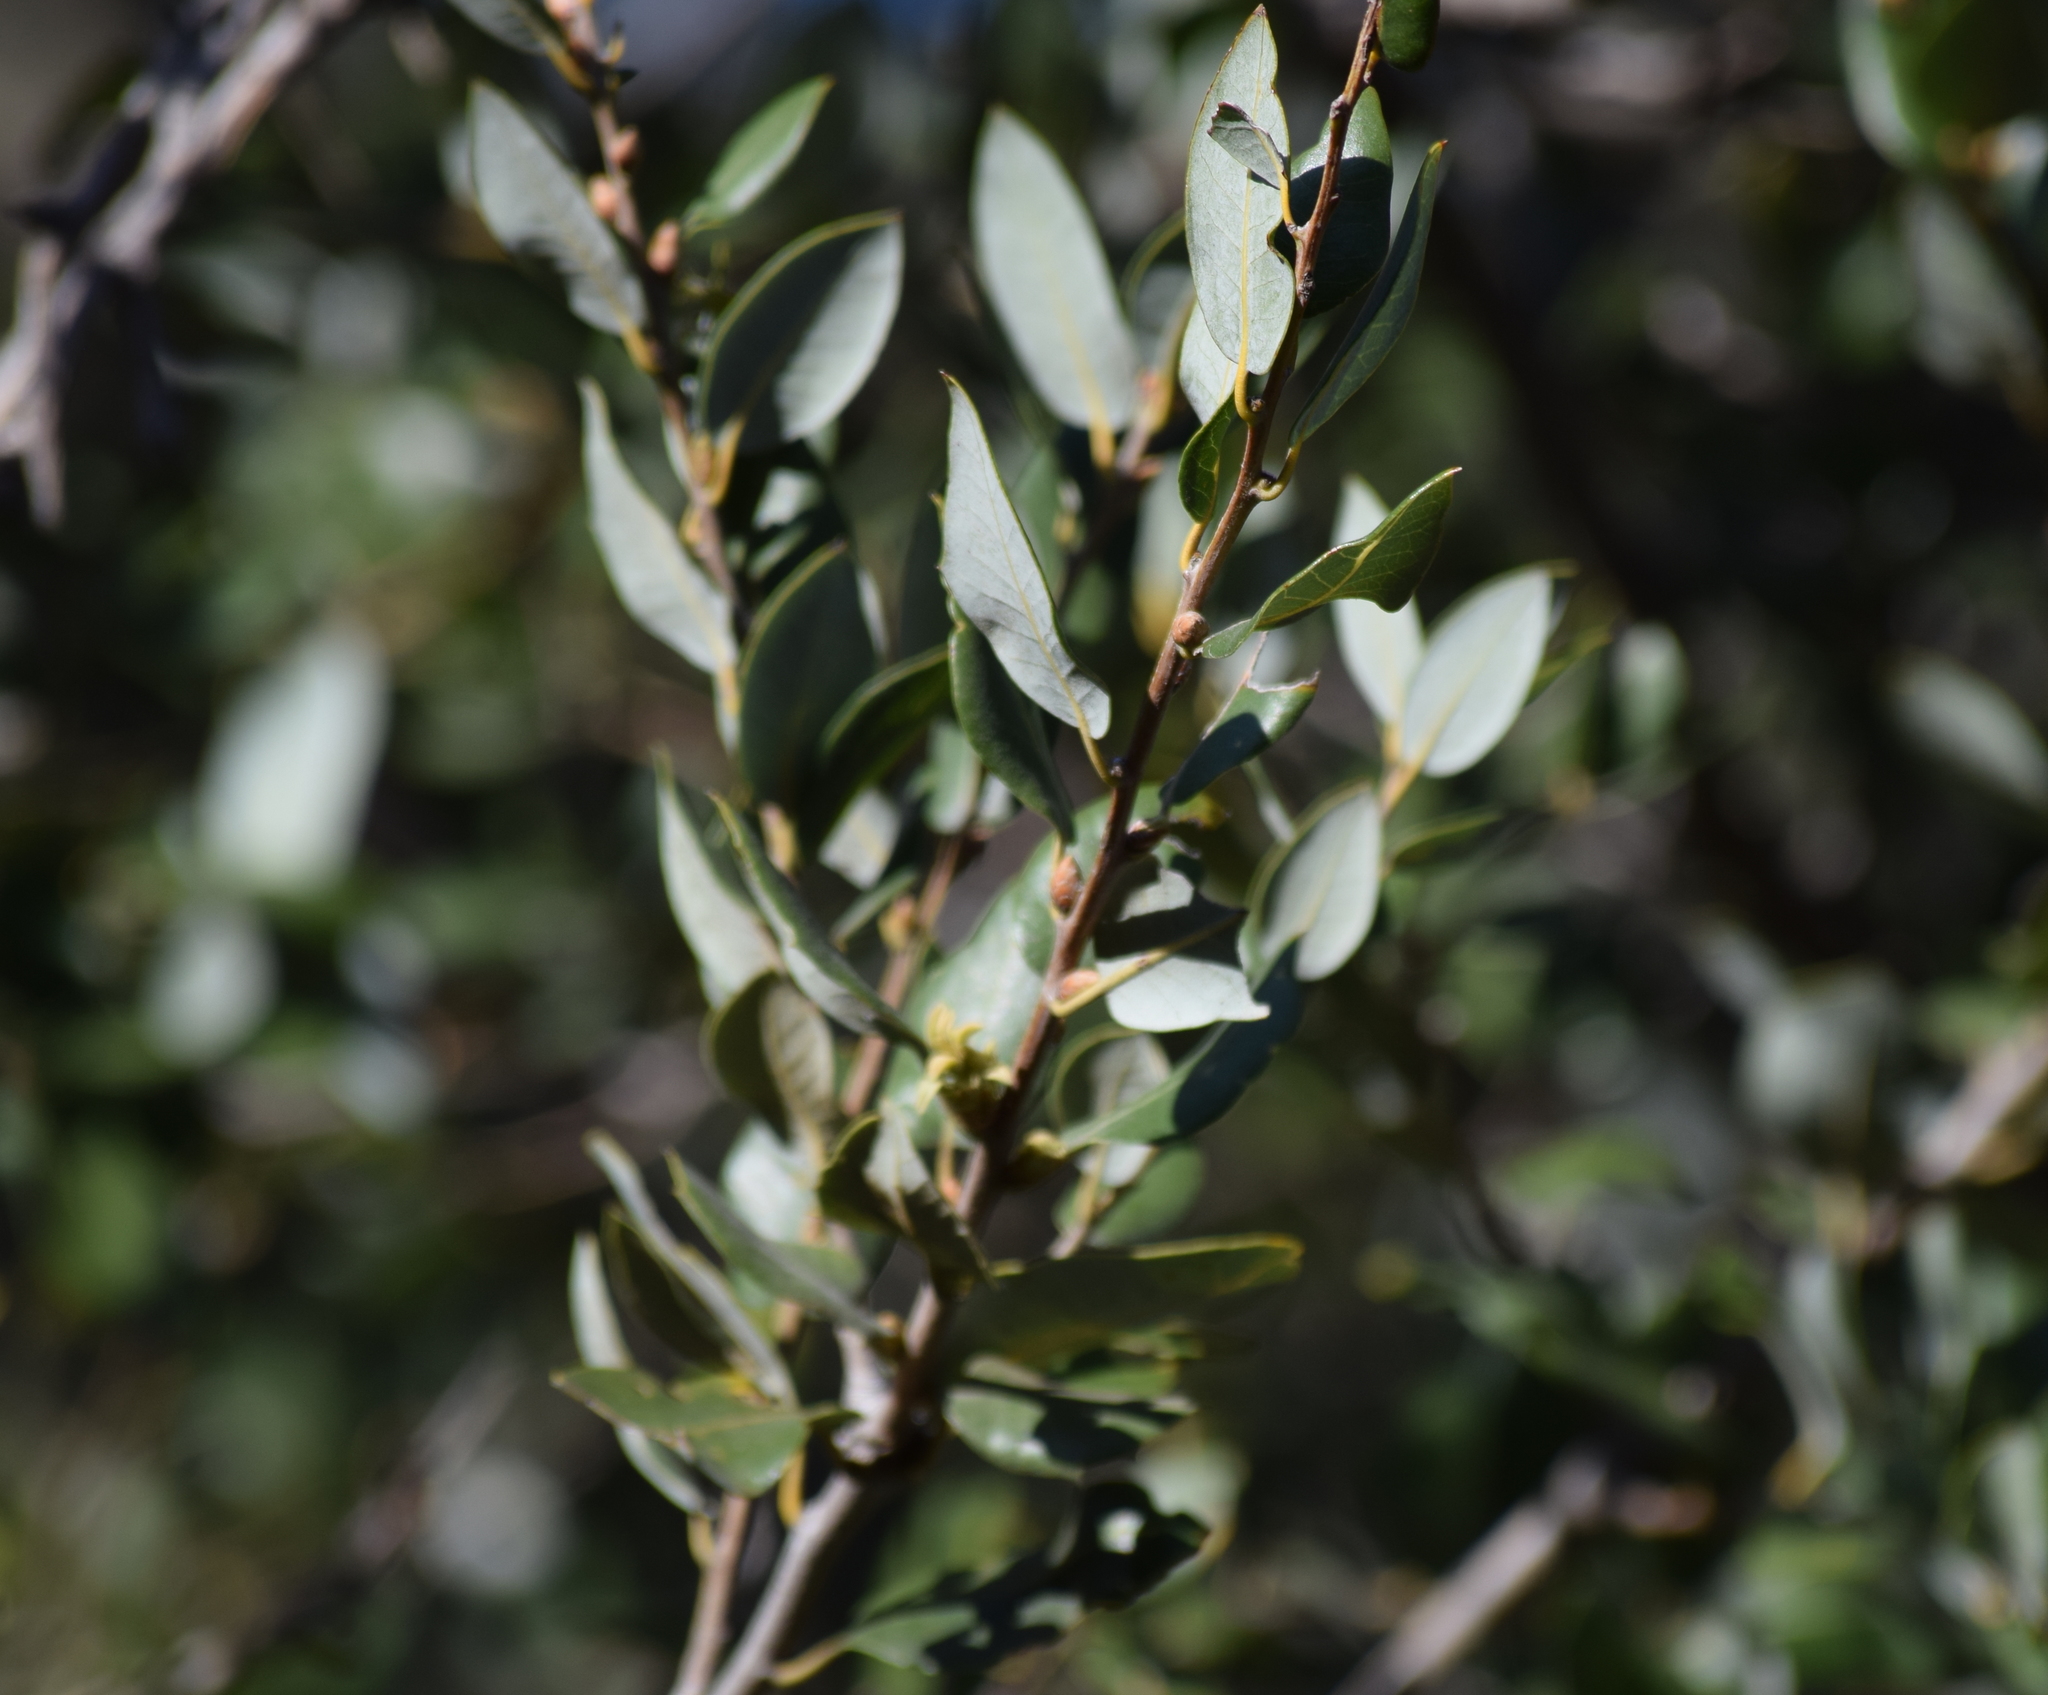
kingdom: Plantae
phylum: Tracheophyta
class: Magnoliopsida
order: Fagales
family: Fagaceae
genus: Quercus
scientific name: Quercus chrysolepis
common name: Canyon live oak
